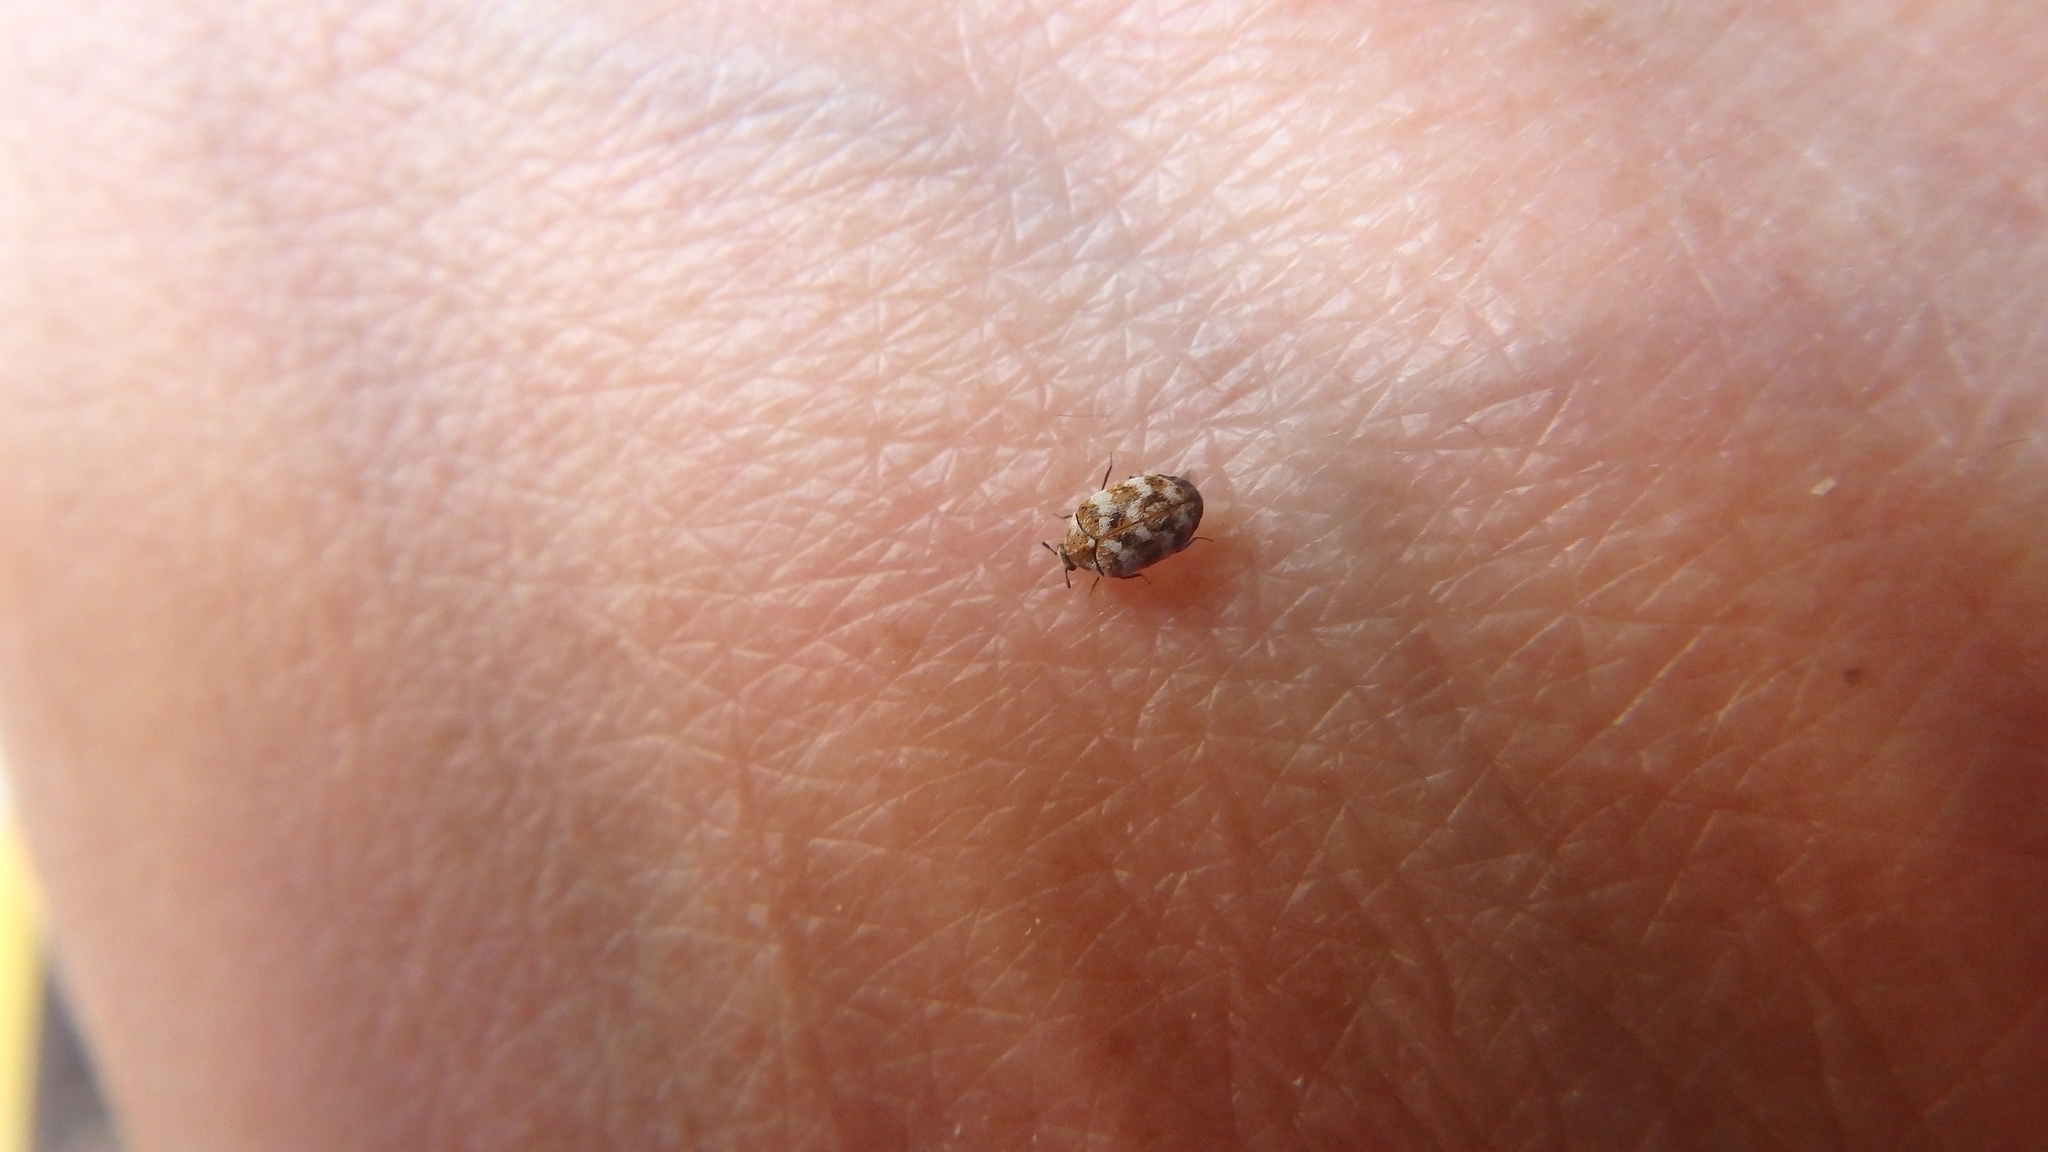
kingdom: Animalia
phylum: Arthropoda
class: Insecta
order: Coleoptera
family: Dermestidae
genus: Anthrenus
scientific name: Anthrenus verbasci
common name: Varied carpet beetle
